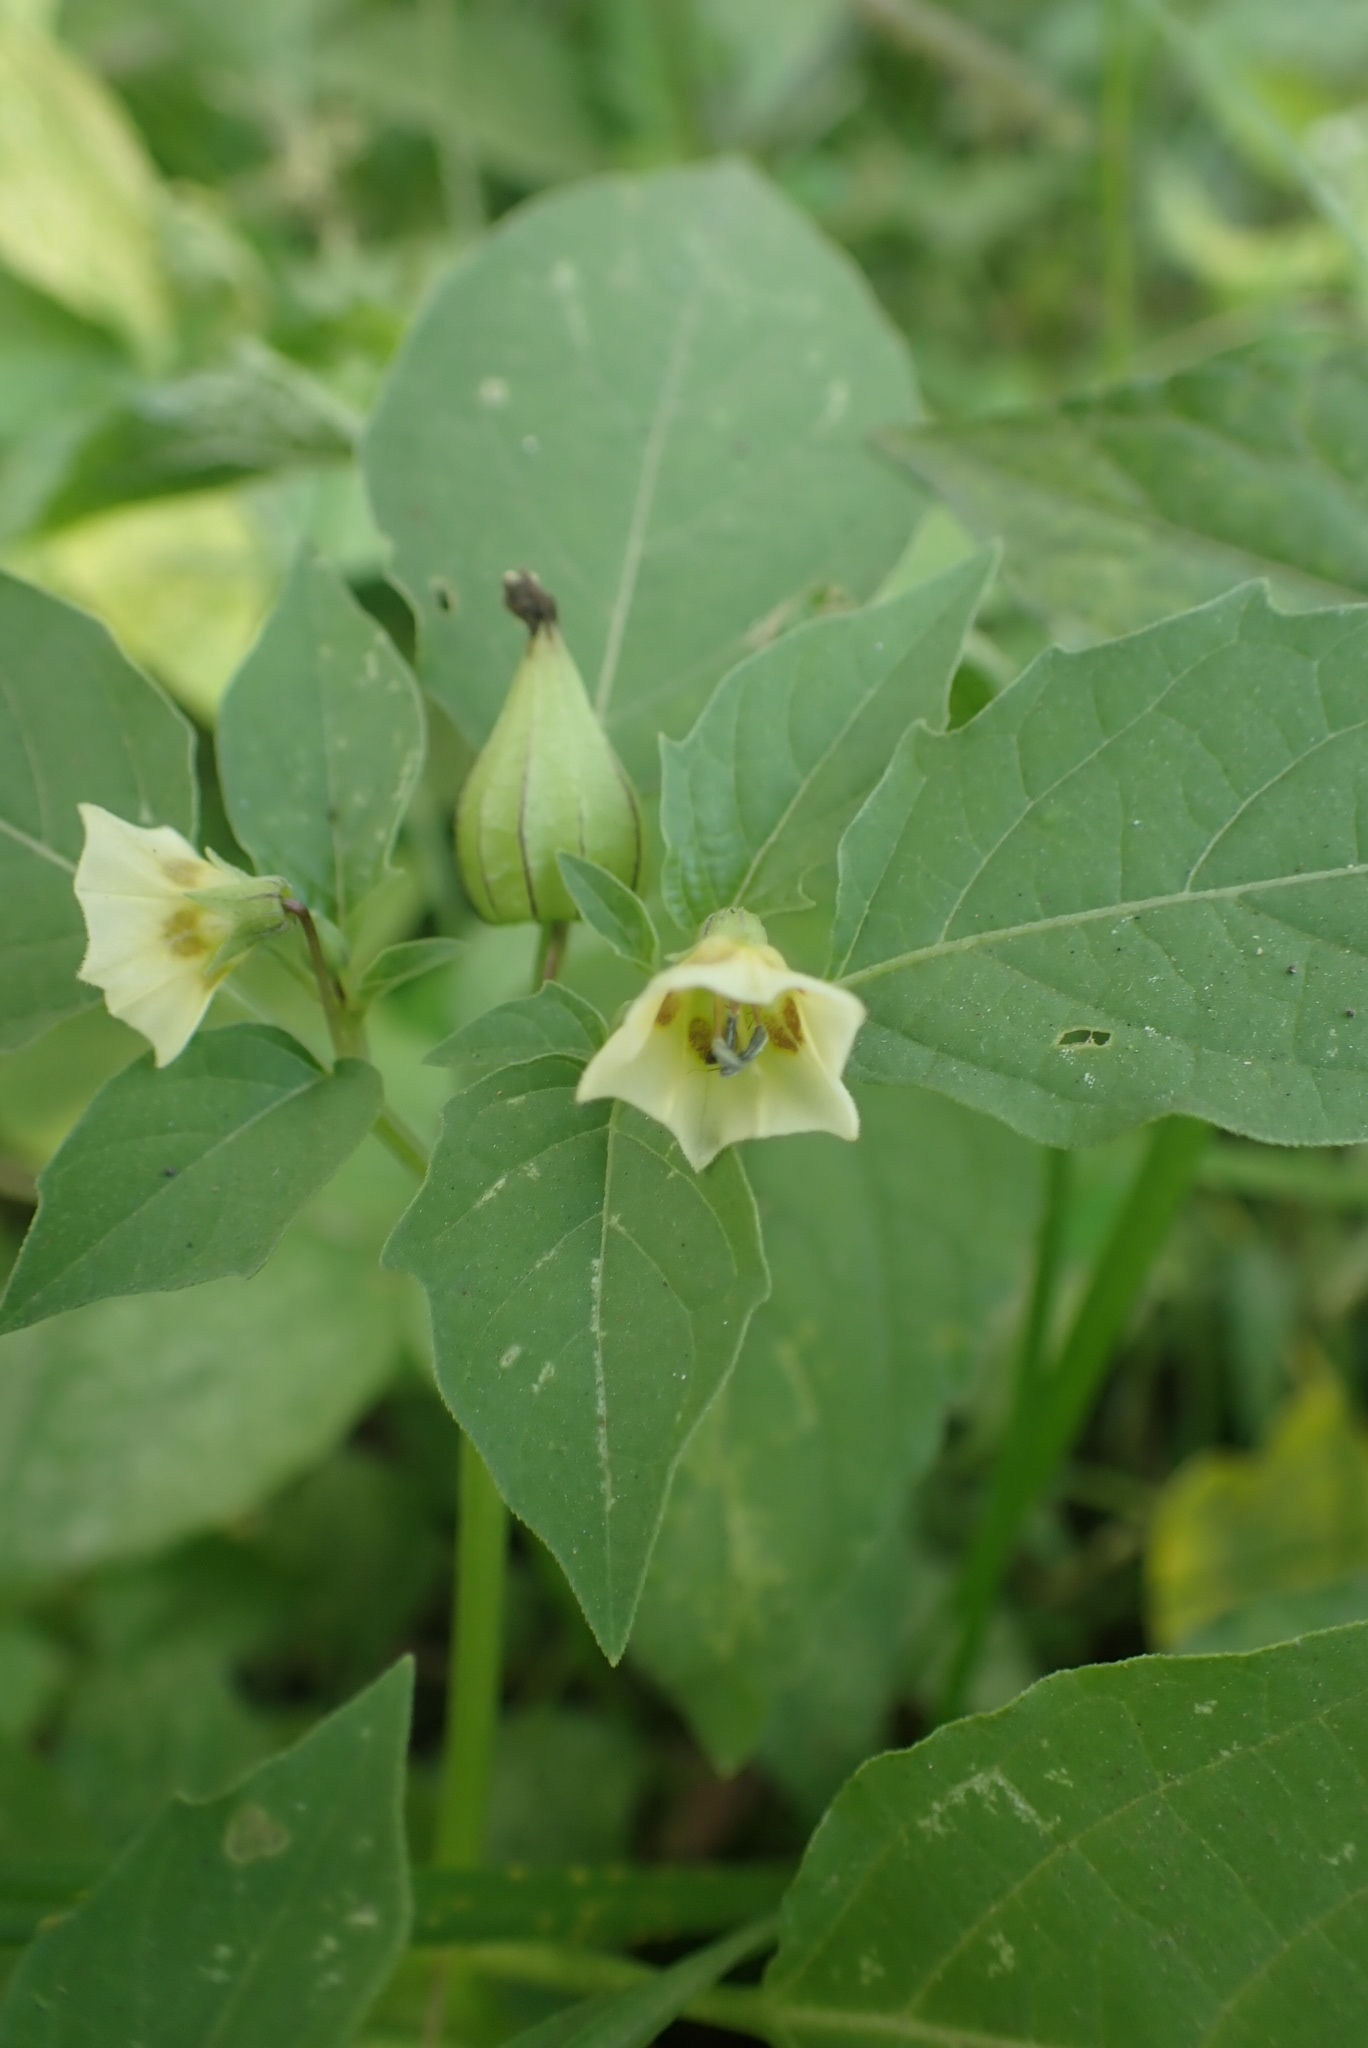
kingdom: Plantae
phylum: Tracheophyta
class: Magnoliopsida
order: Solanales
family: Solanaceae
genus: Physalis
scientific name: Physalis angulata
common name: Angular winter-cherry
